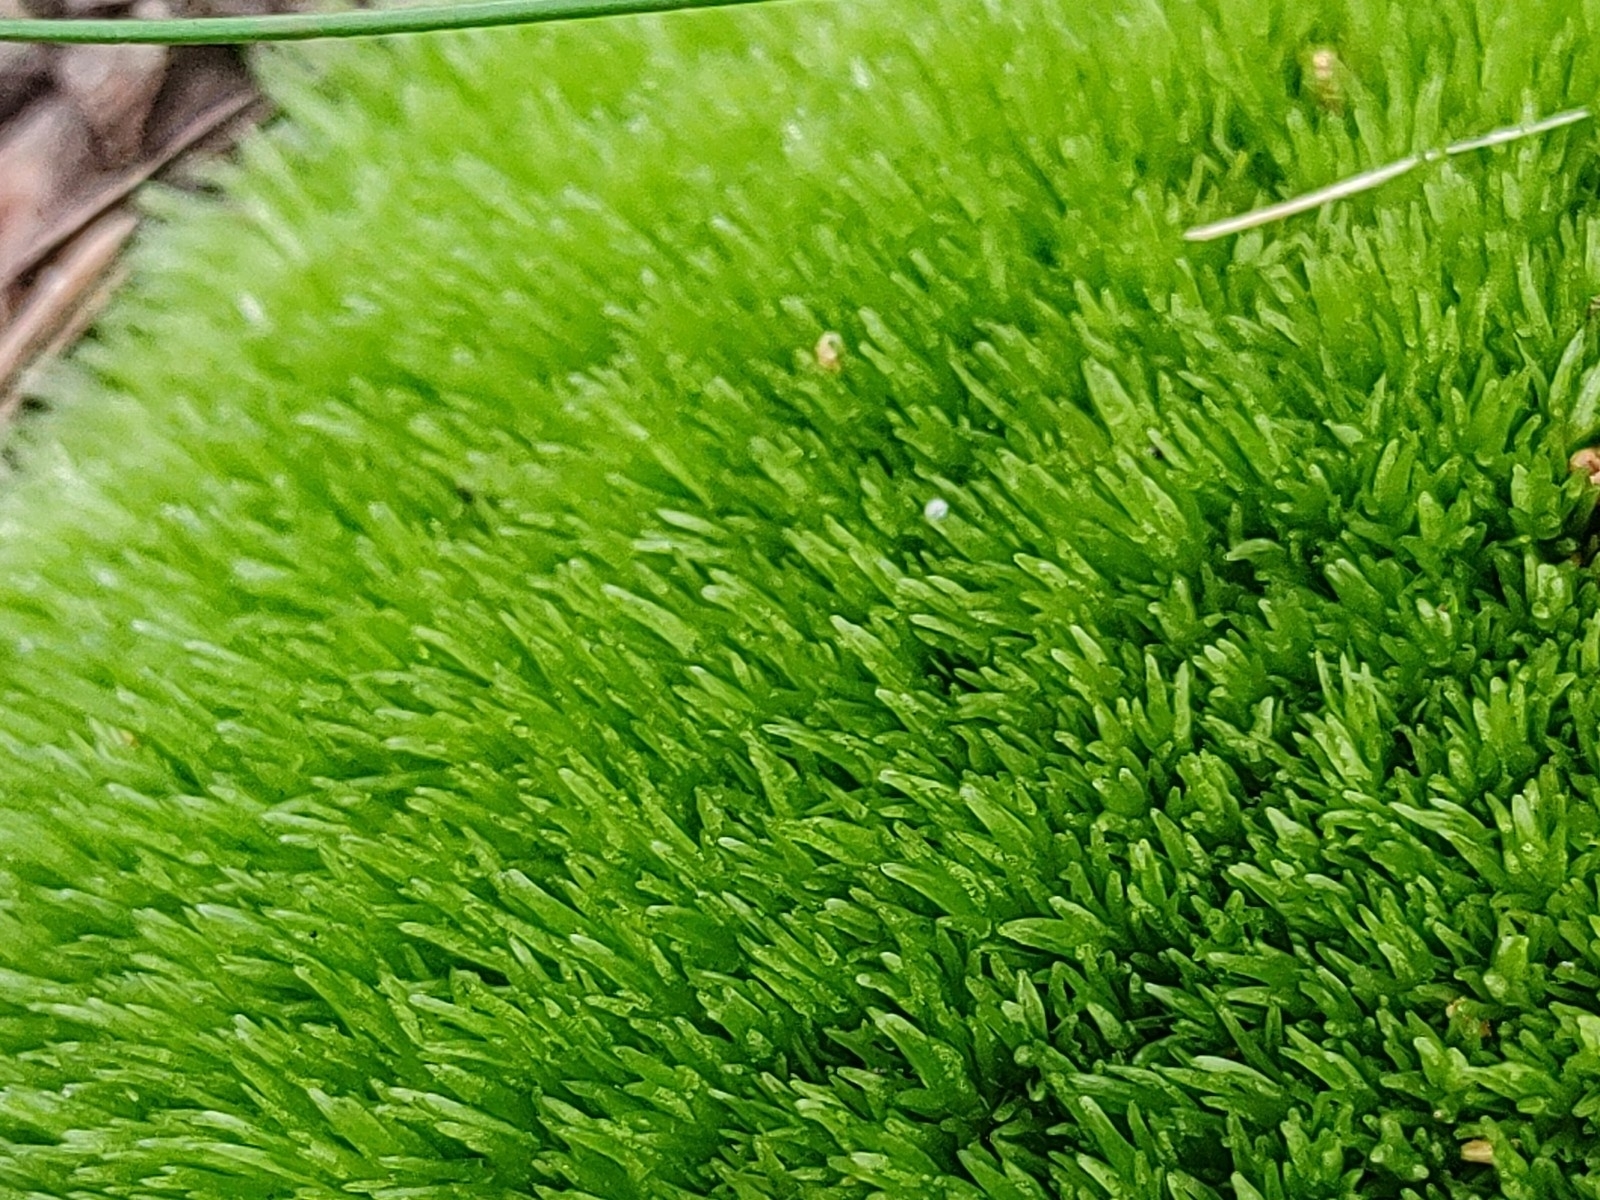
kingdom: Plantae
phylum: Bryophyta
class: Bryopsida
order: Dicranales
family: Leucobryaceae
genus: Leucobryum
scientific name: Leucobryum glaucum
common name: Large white-moss
